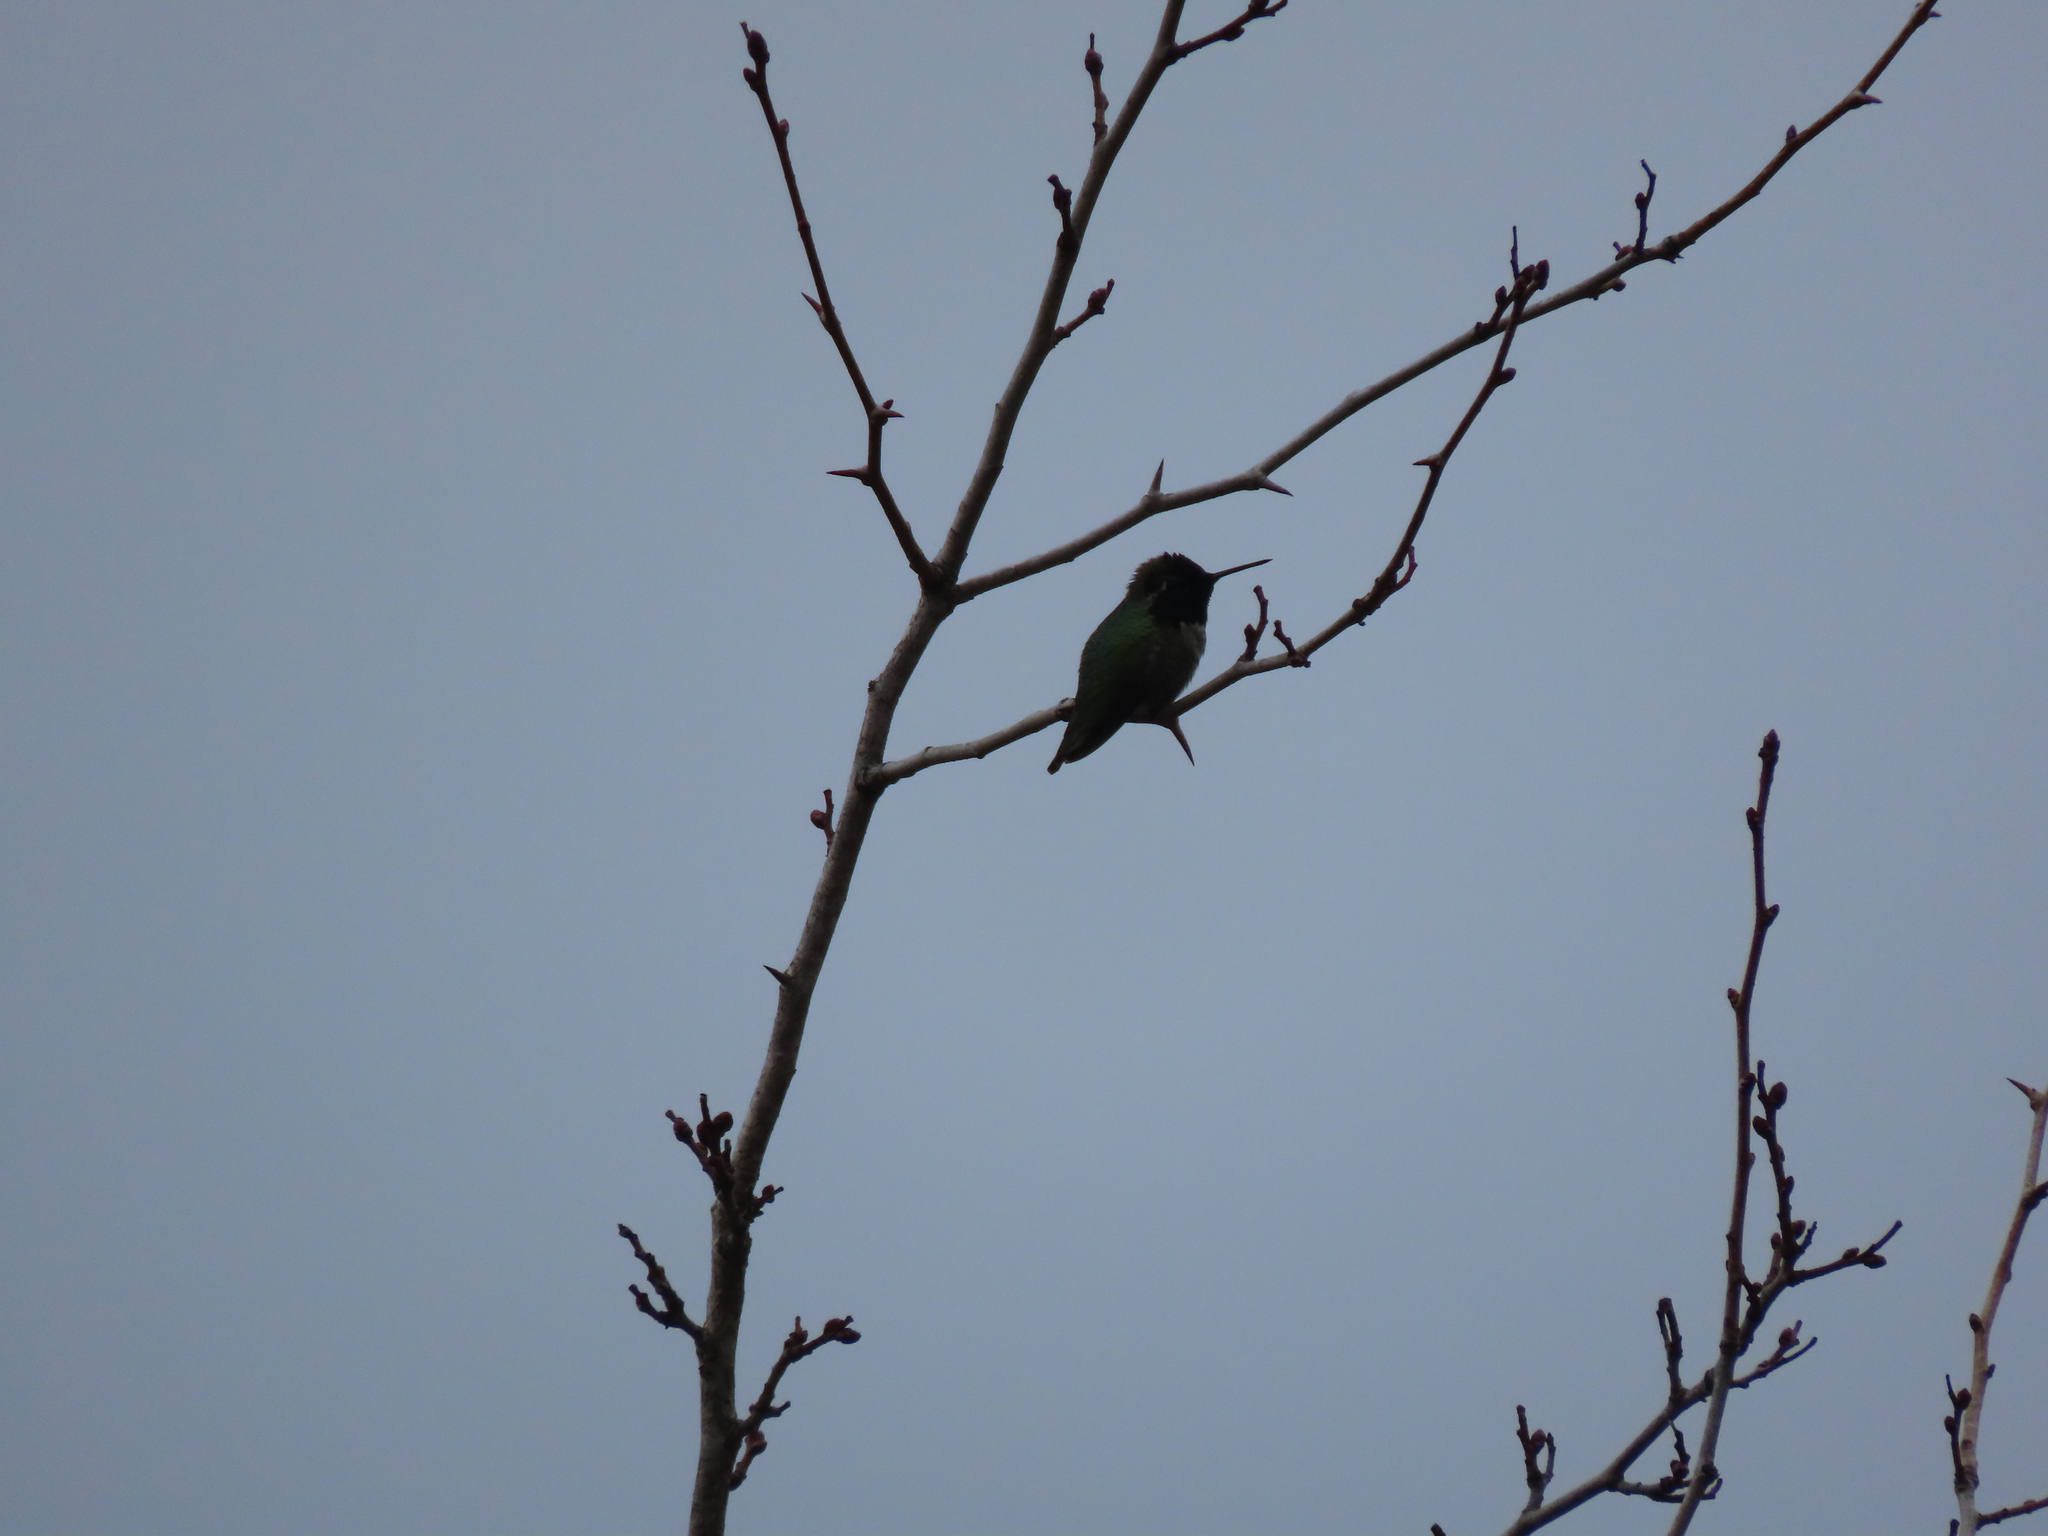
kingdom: Animalia
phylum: Chordata
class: Aves
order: Apodiformes
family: Trochilidae
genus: Calypte
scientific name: Calypte anna
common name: Anna's hummingbird
